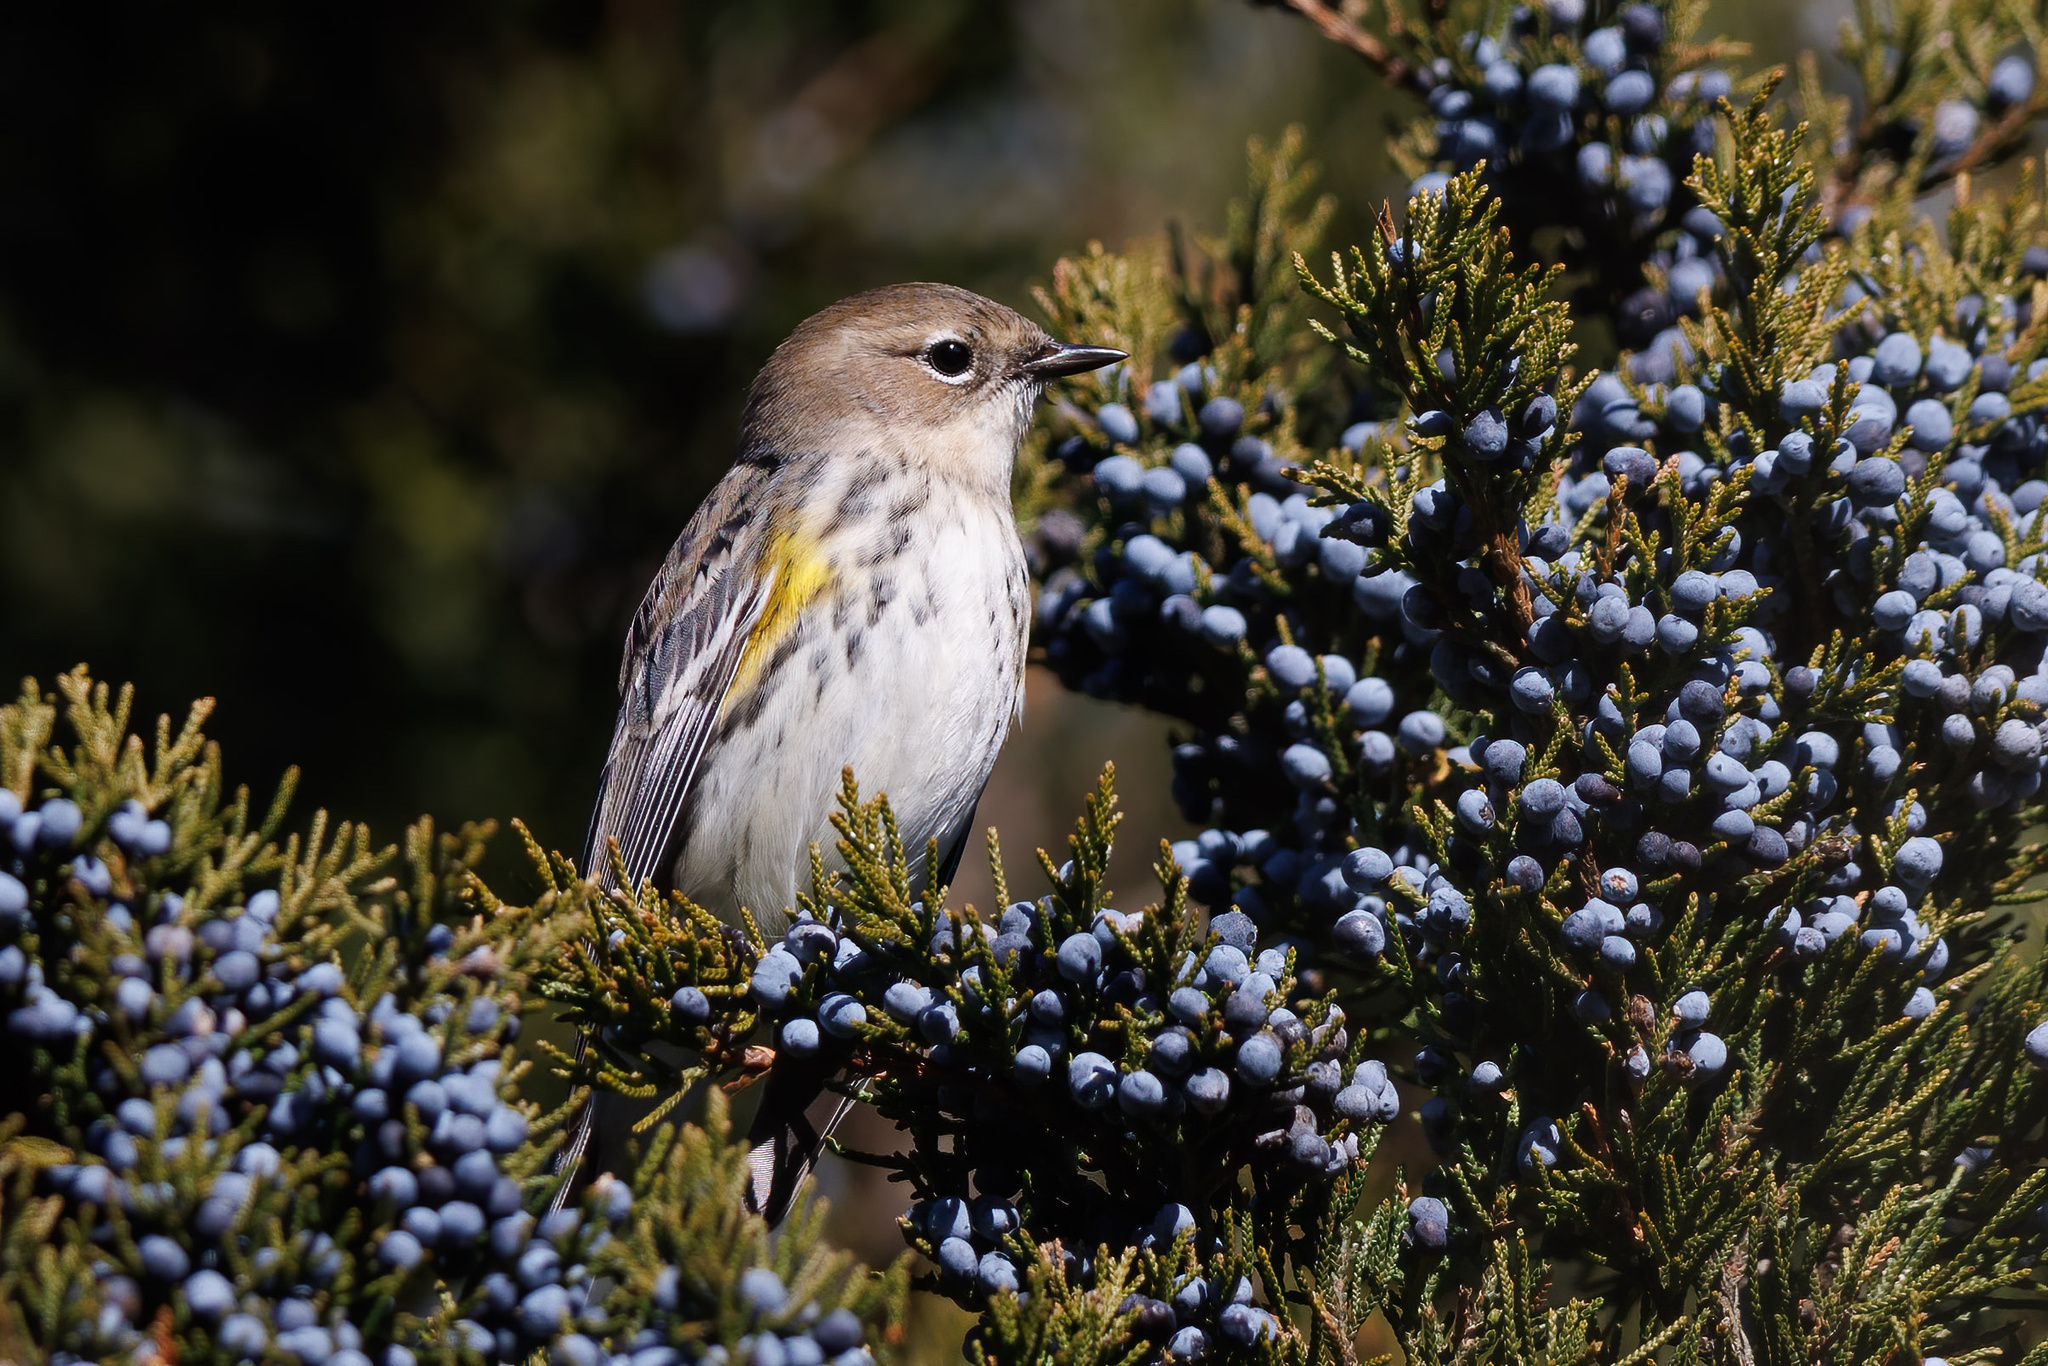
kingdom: Animalia
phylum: Chordata
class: Aves
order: Passeriformes
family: Parulidae
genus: Setophaga
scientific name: Setophaga coronata
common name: Myrtle warbler
